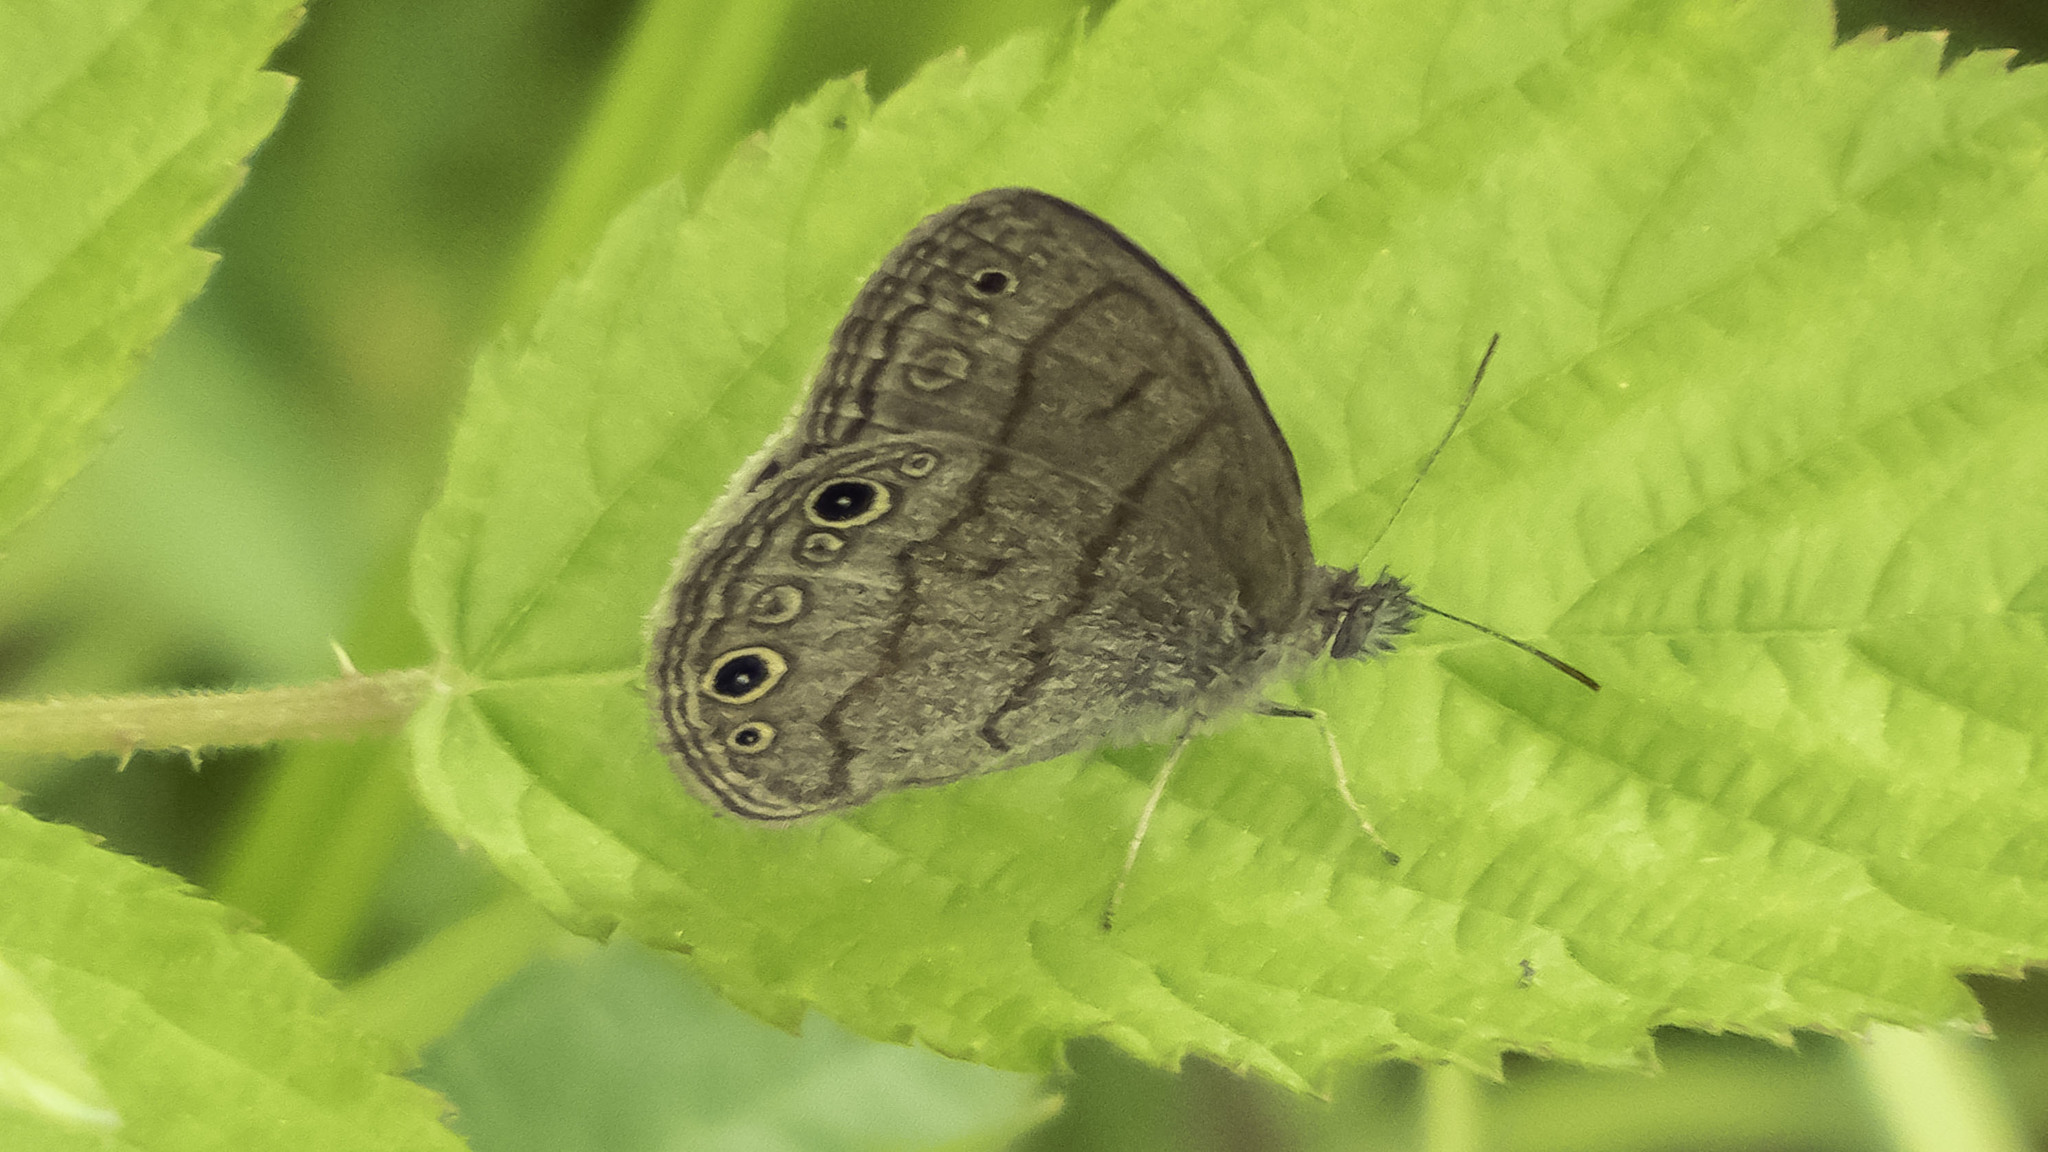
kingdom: Animalia
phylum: Arthropoda
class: Insecta
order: Lepidoptera
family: Nymphalidae
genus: Hermeuptychia
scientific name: Hermeuptychia hermes
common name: Hermes satyr
